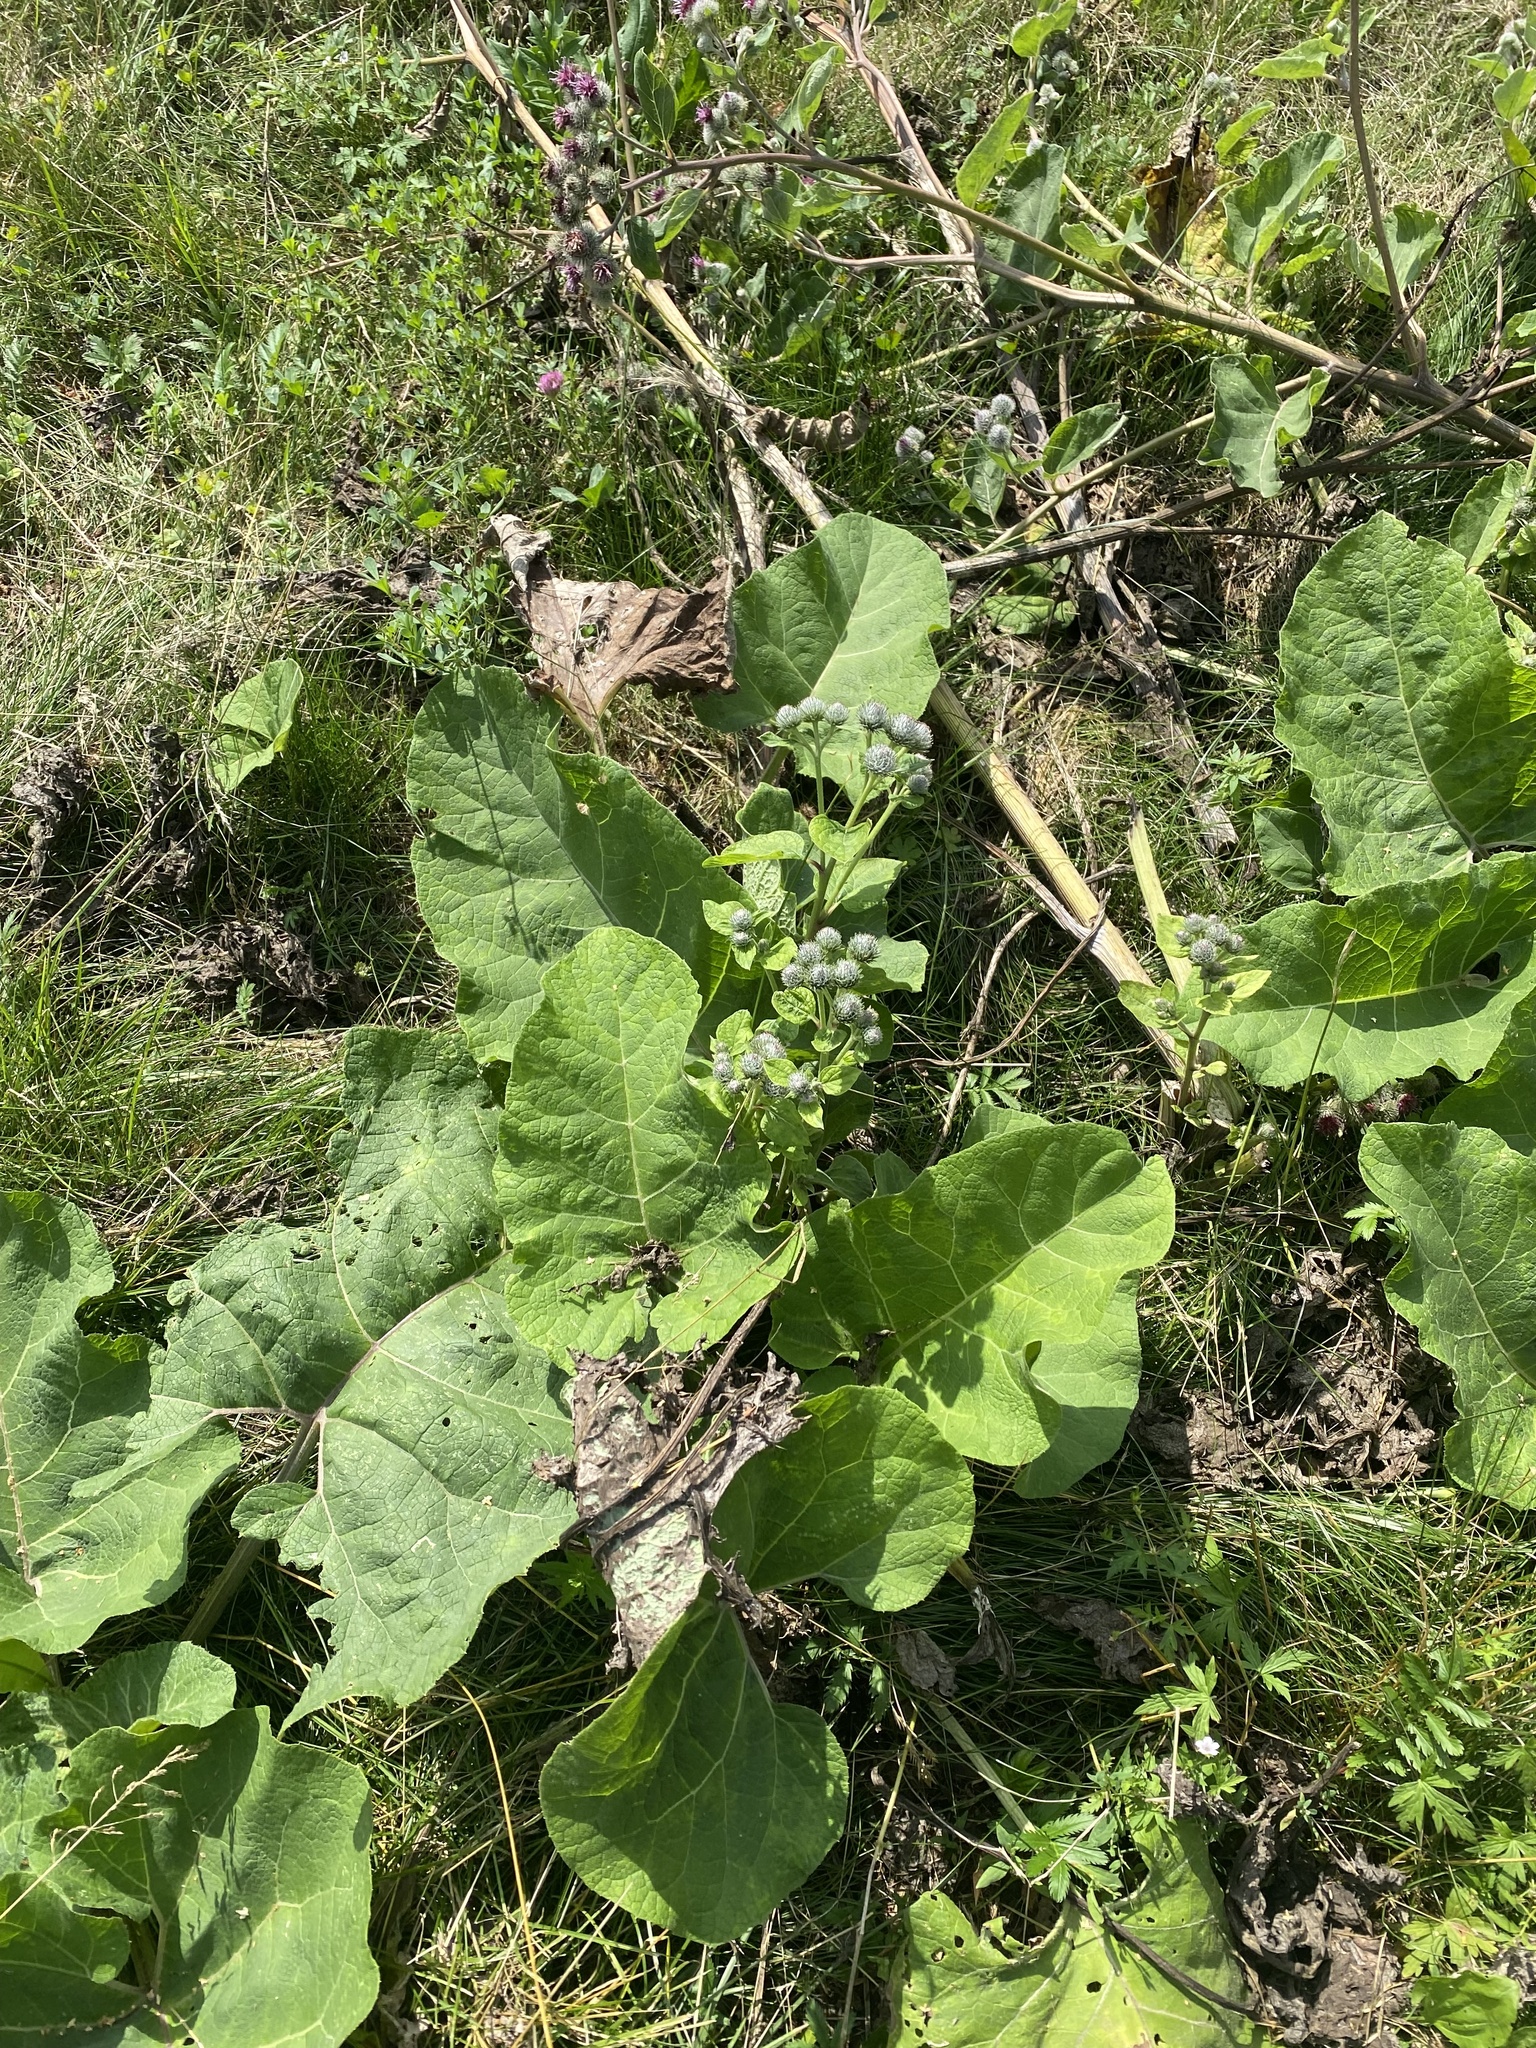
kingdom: Plantae
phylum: Tracheophyta
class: Magnoliopsida
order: Asterales
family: Asteraceae
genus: Arctium
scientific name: Arctium tomentosum
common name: Woolly burdock
